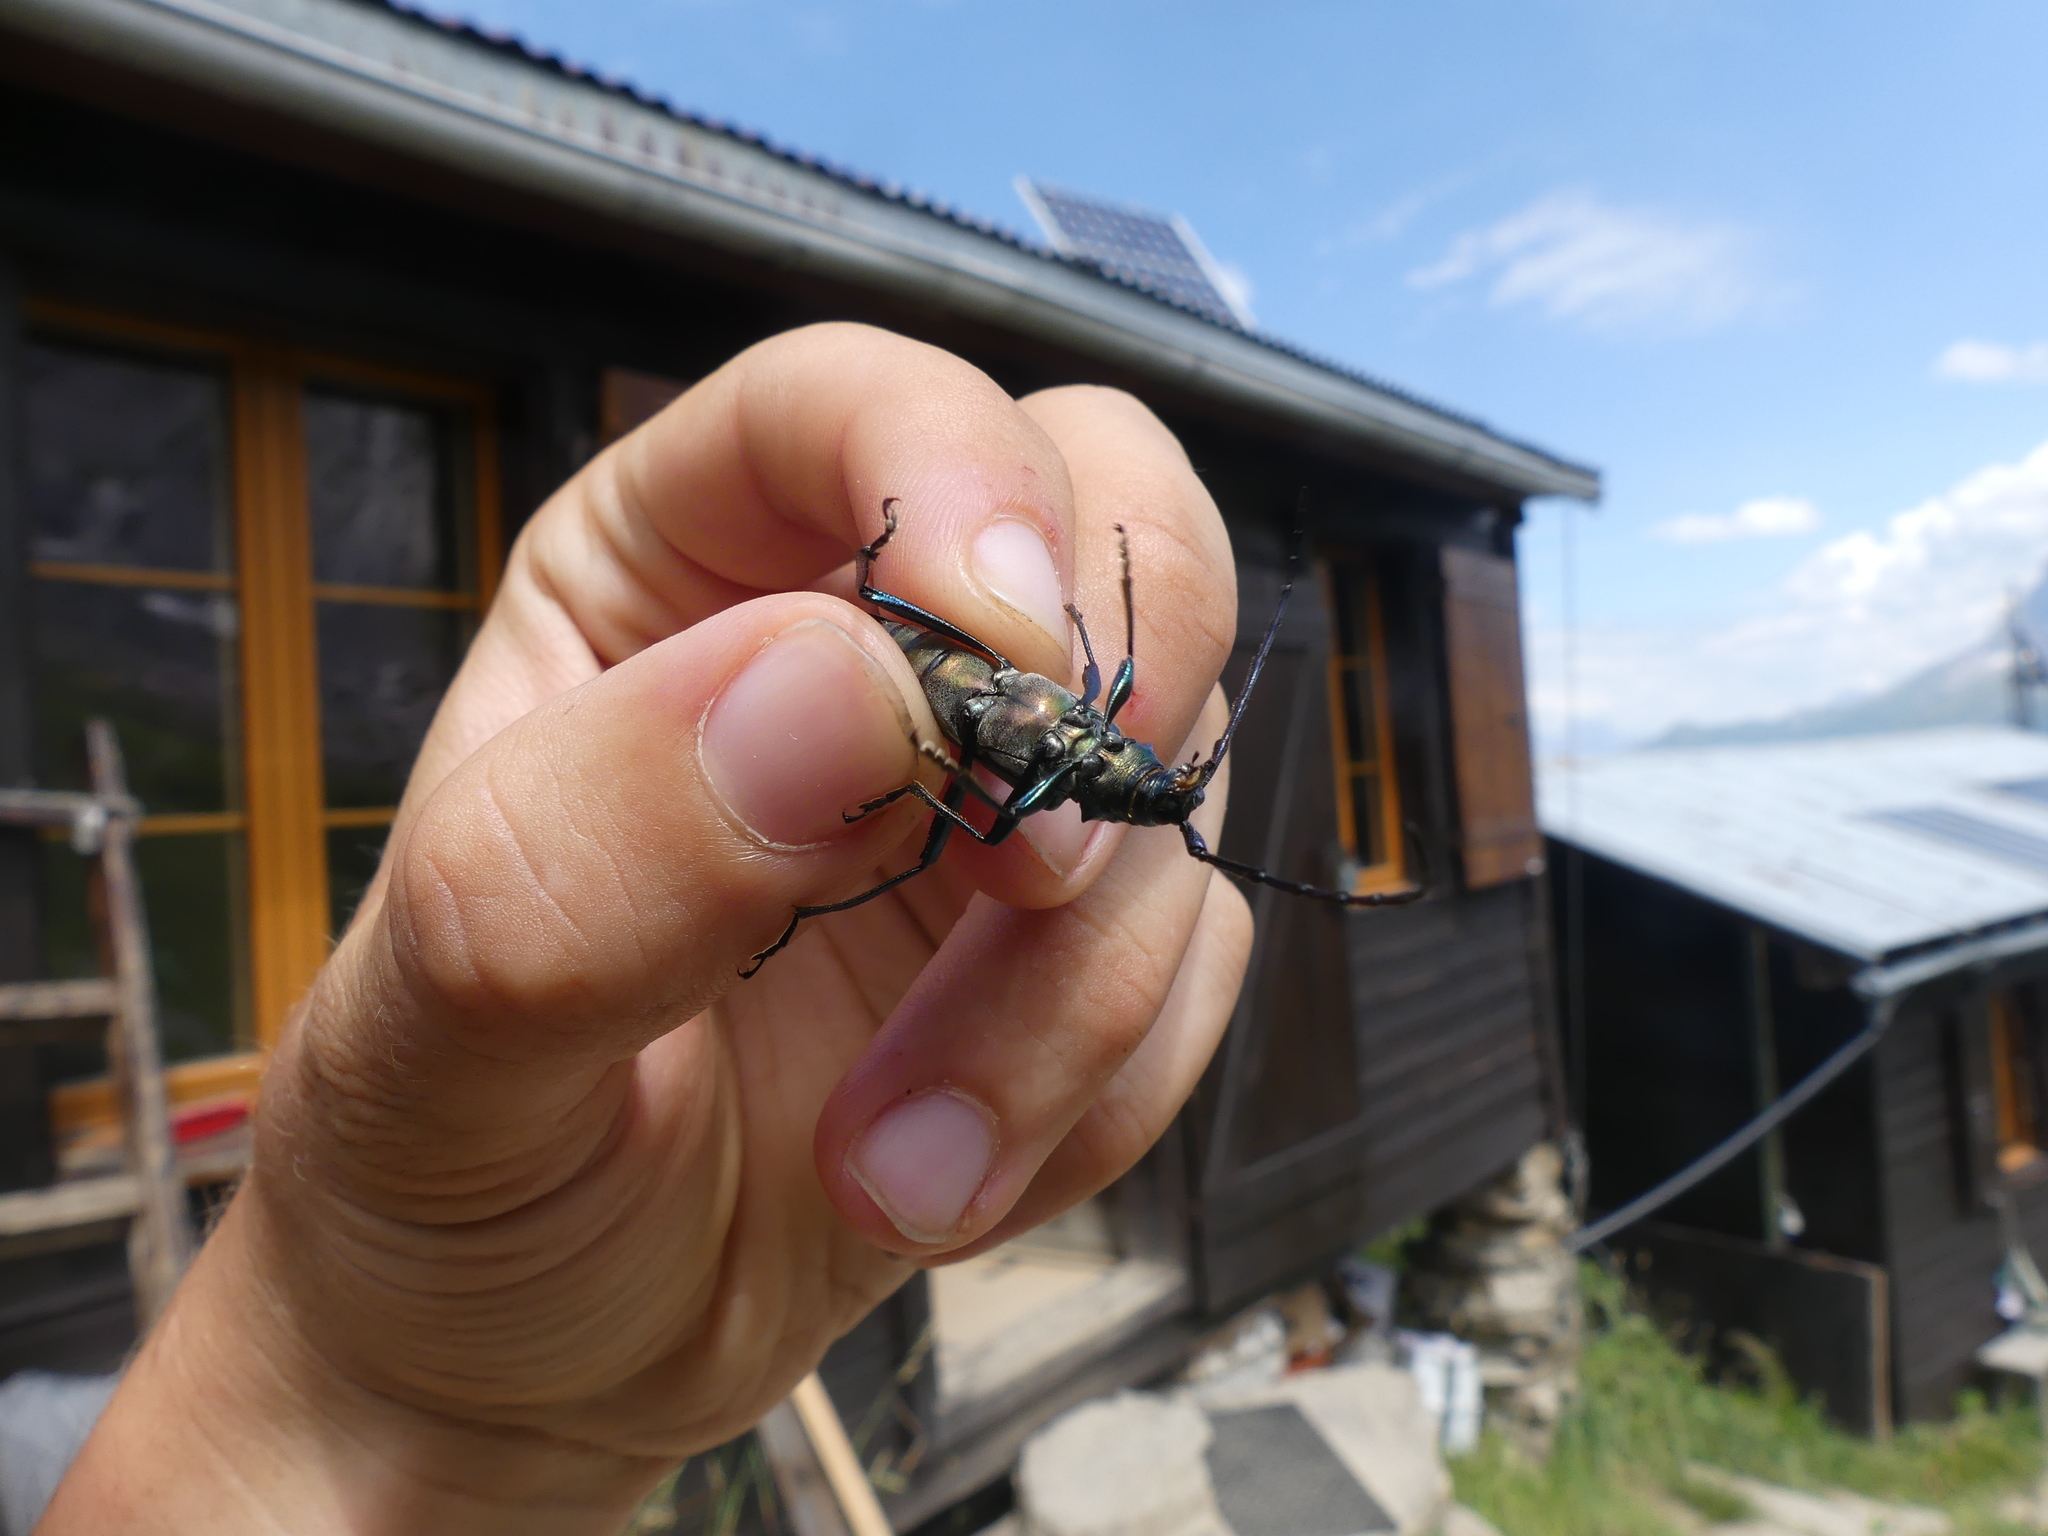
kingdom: Animalia
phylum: Arthropoda
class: Insecta
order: Coleoptera
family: Cerambycidae
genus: Aromia
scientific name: Aromia moschata
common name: Musk beetle
